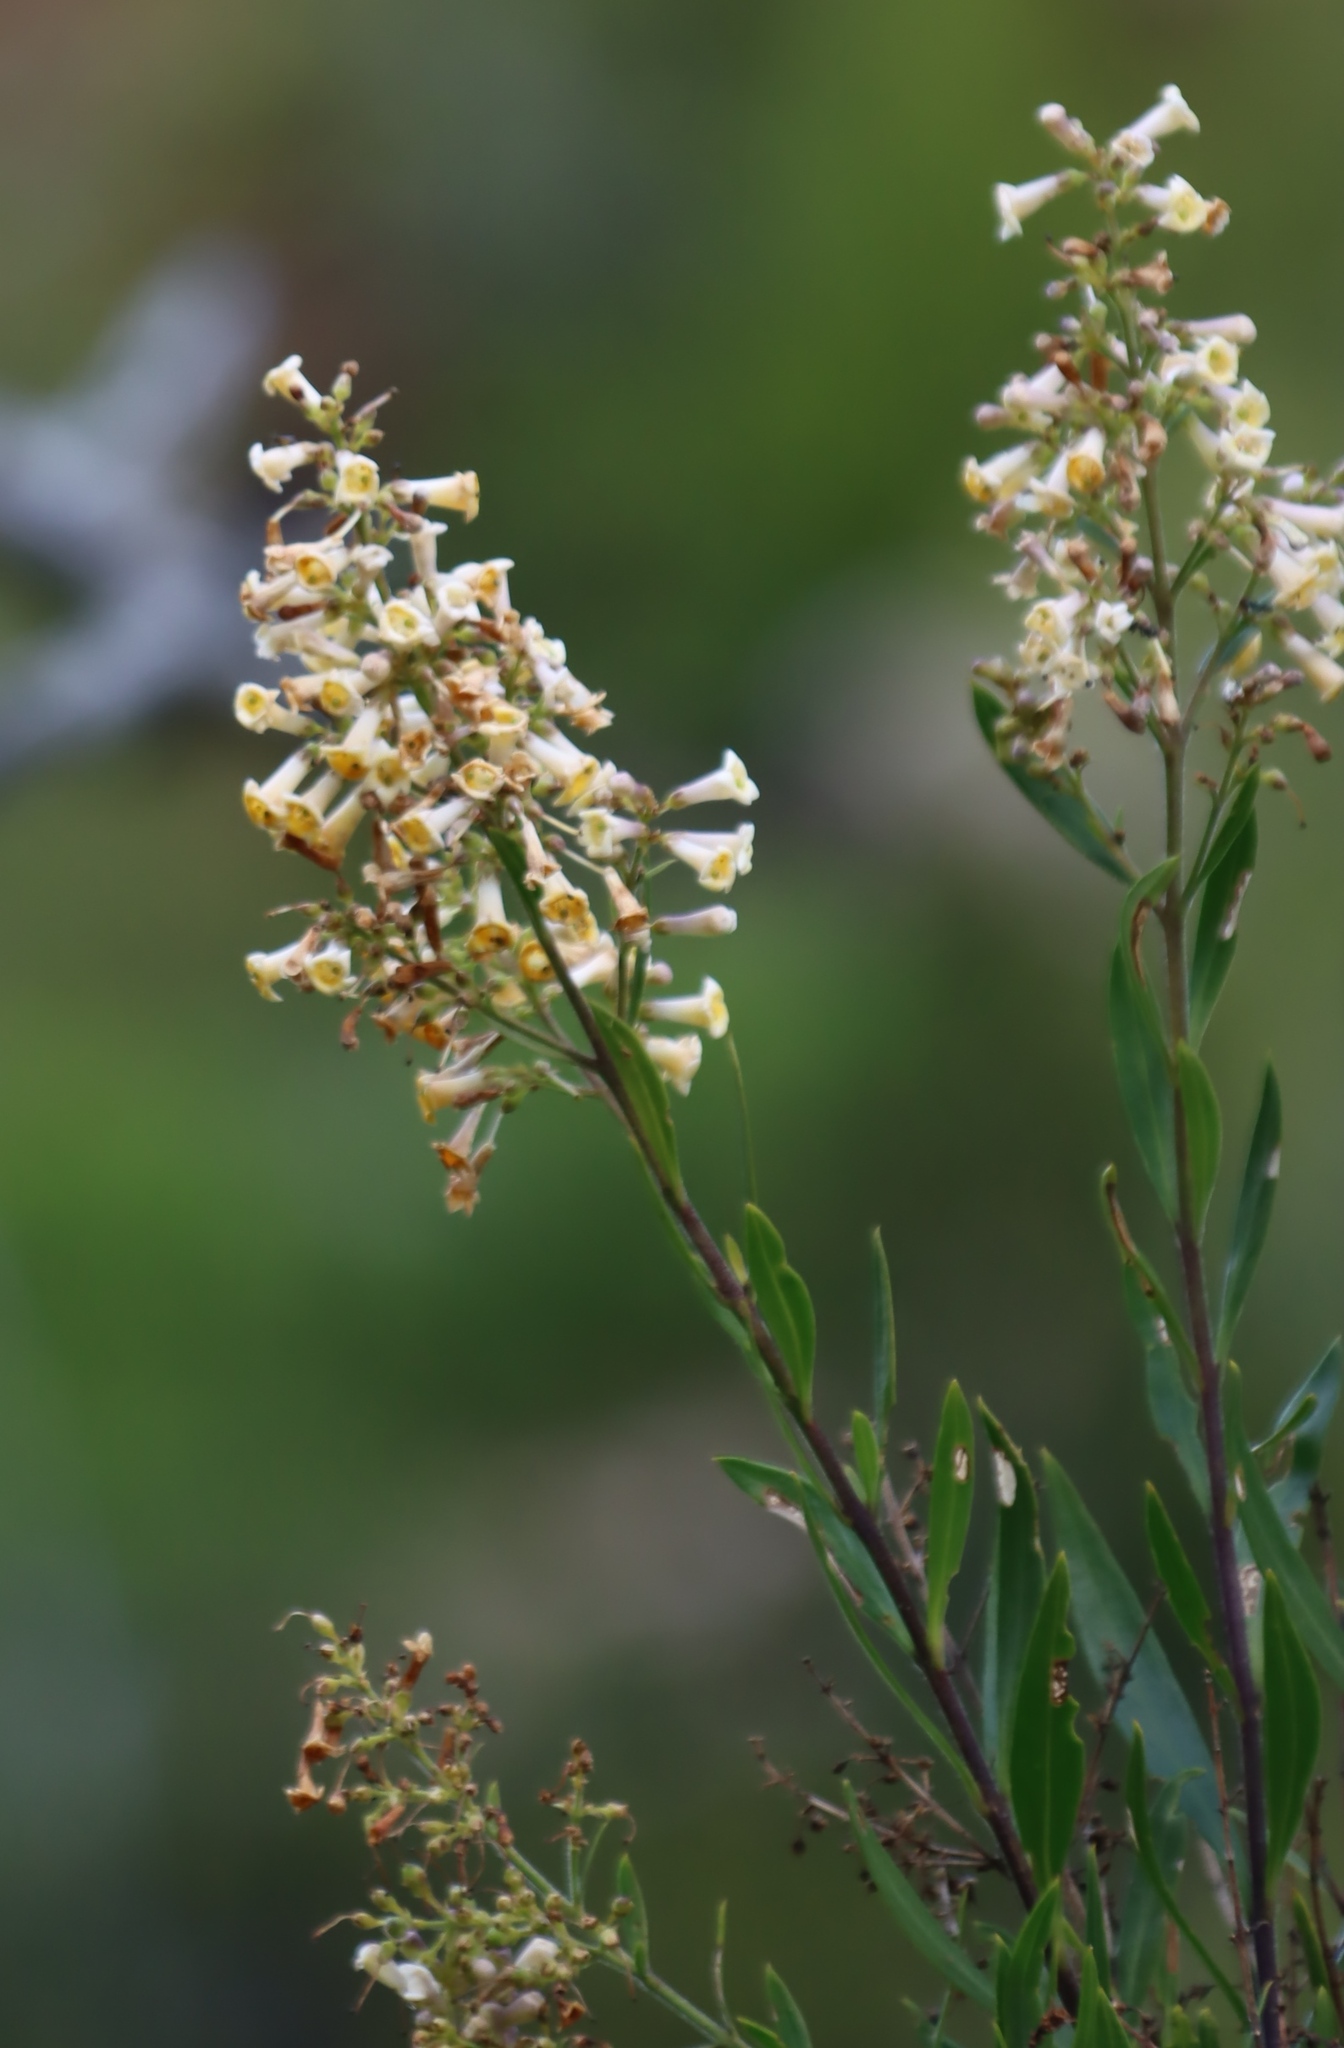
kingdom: Plantae
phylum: Tracheophyta
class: Magnoliopsida
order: Lamiales
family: Scrophulariaceae
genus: Freylinia
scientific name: Freylinia lanceolata
